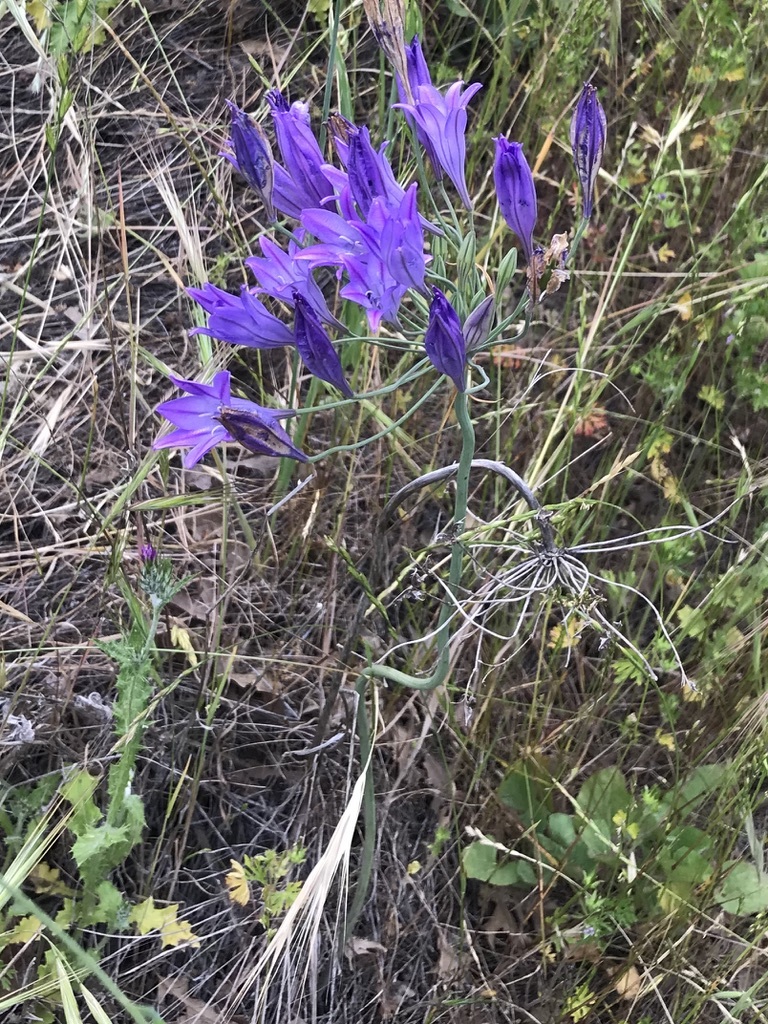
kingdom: Plantae
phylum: Tracheophyta
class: Liliopsida
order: Asparagales
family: Asparagaceae
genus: Triteleia
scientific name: Triteleia laxa
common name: Triplet-lily
